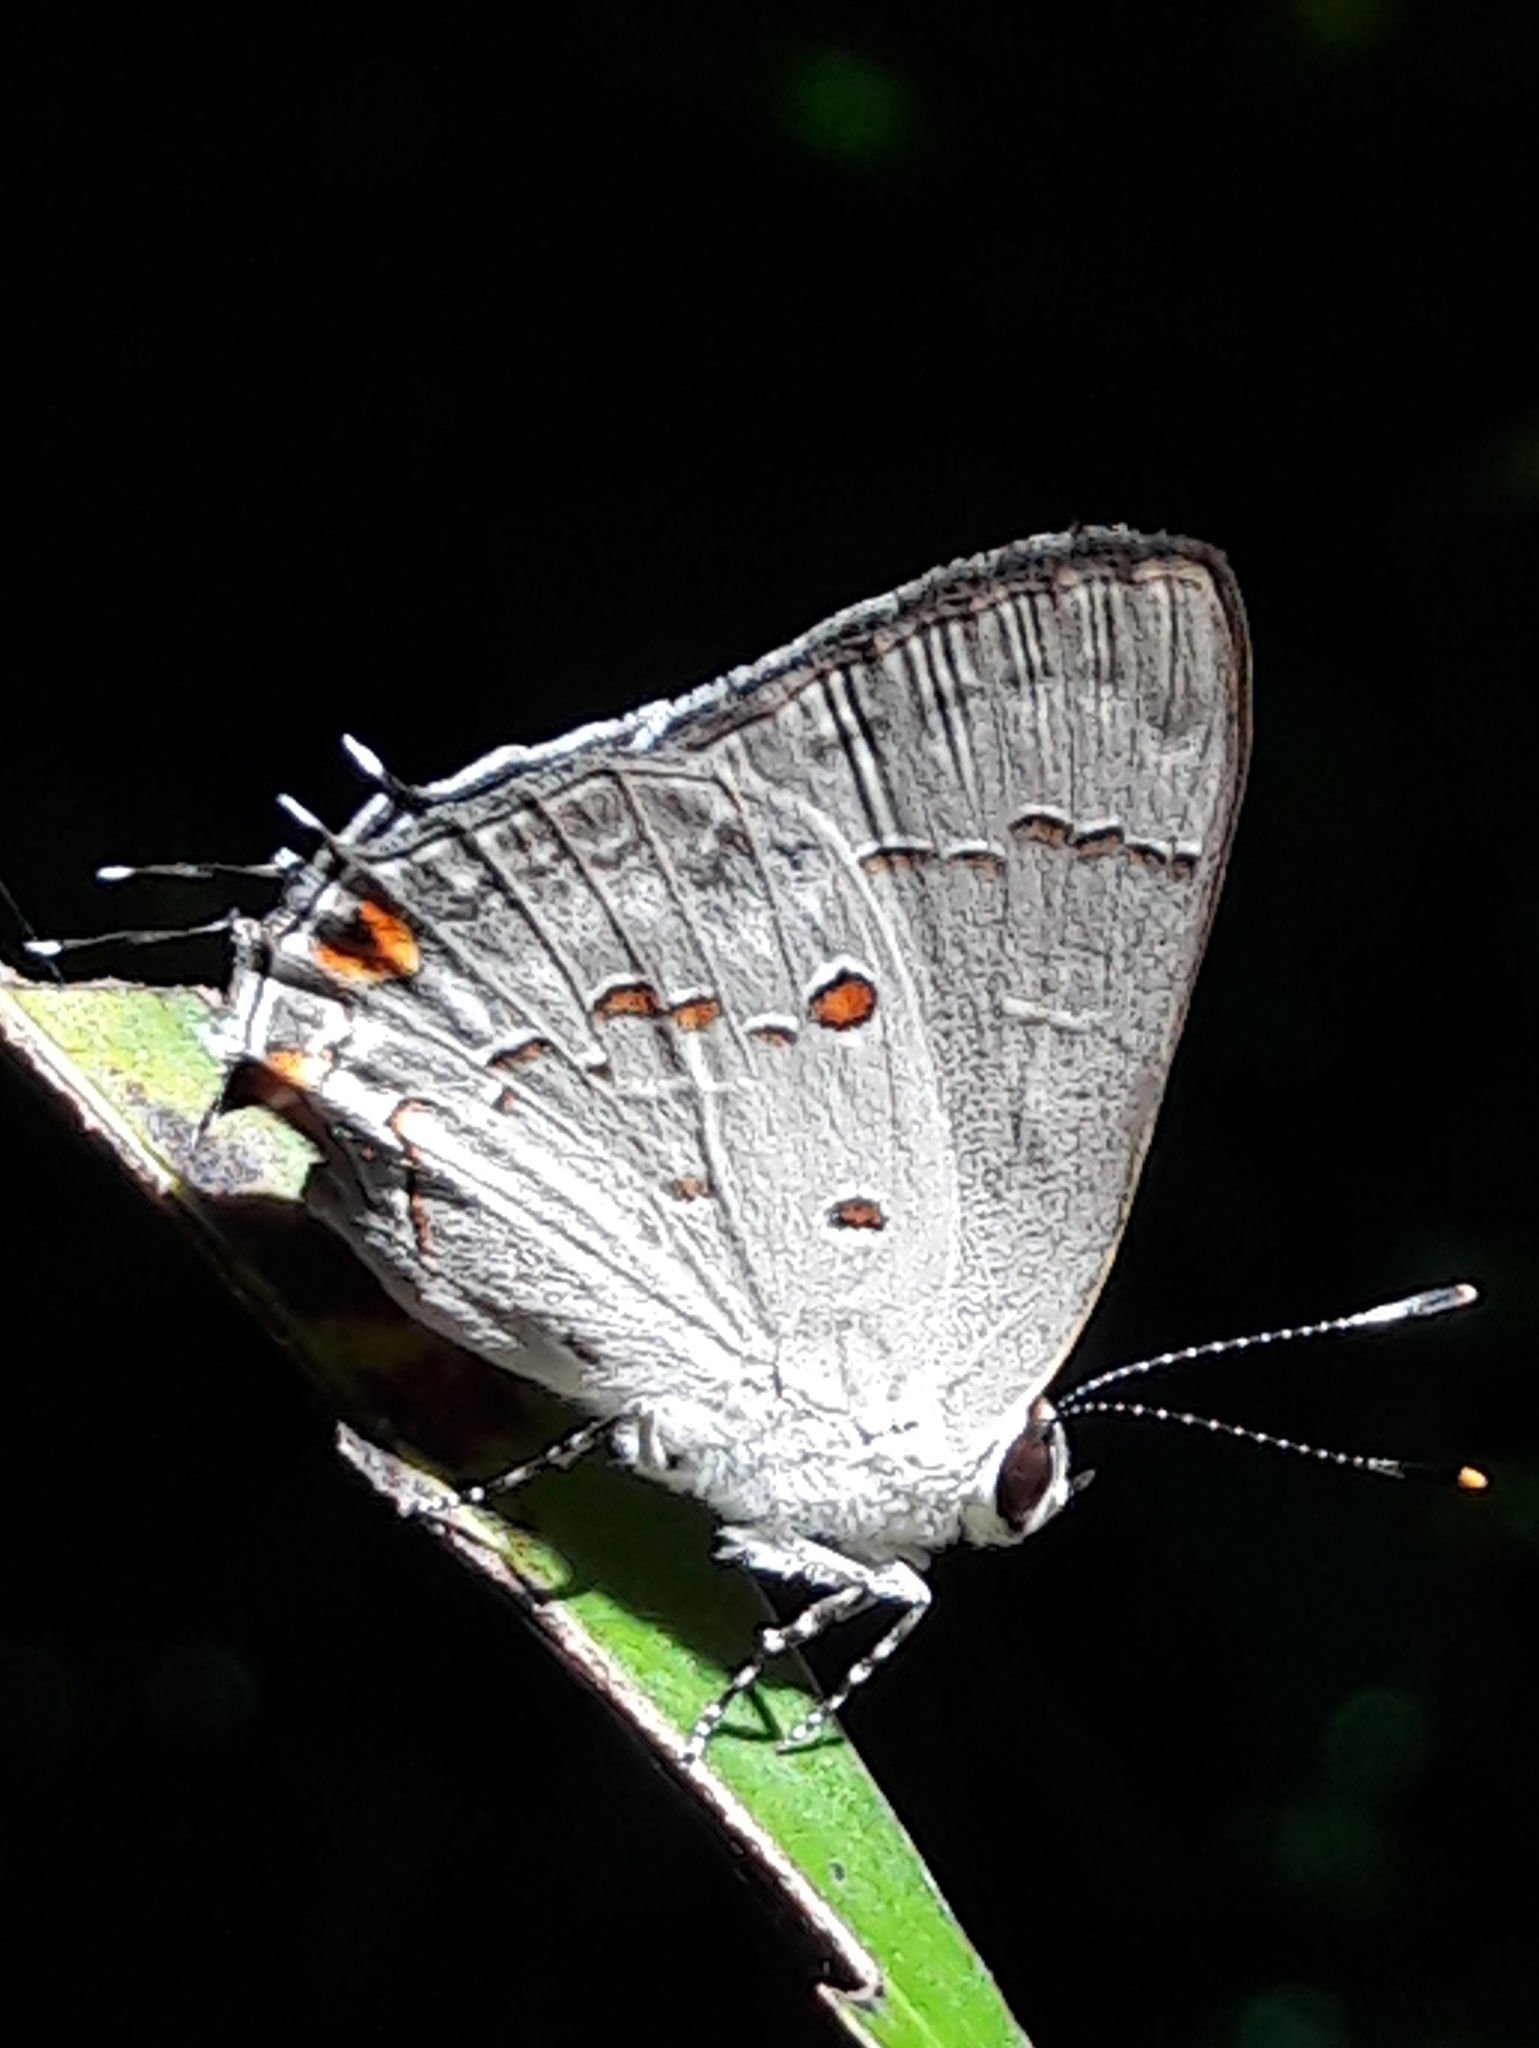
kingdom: Animalia
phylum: Arthropoda
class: Insecta
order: Lepidoptera
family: Lycaenidae
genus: Strymon
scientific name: Strymon
